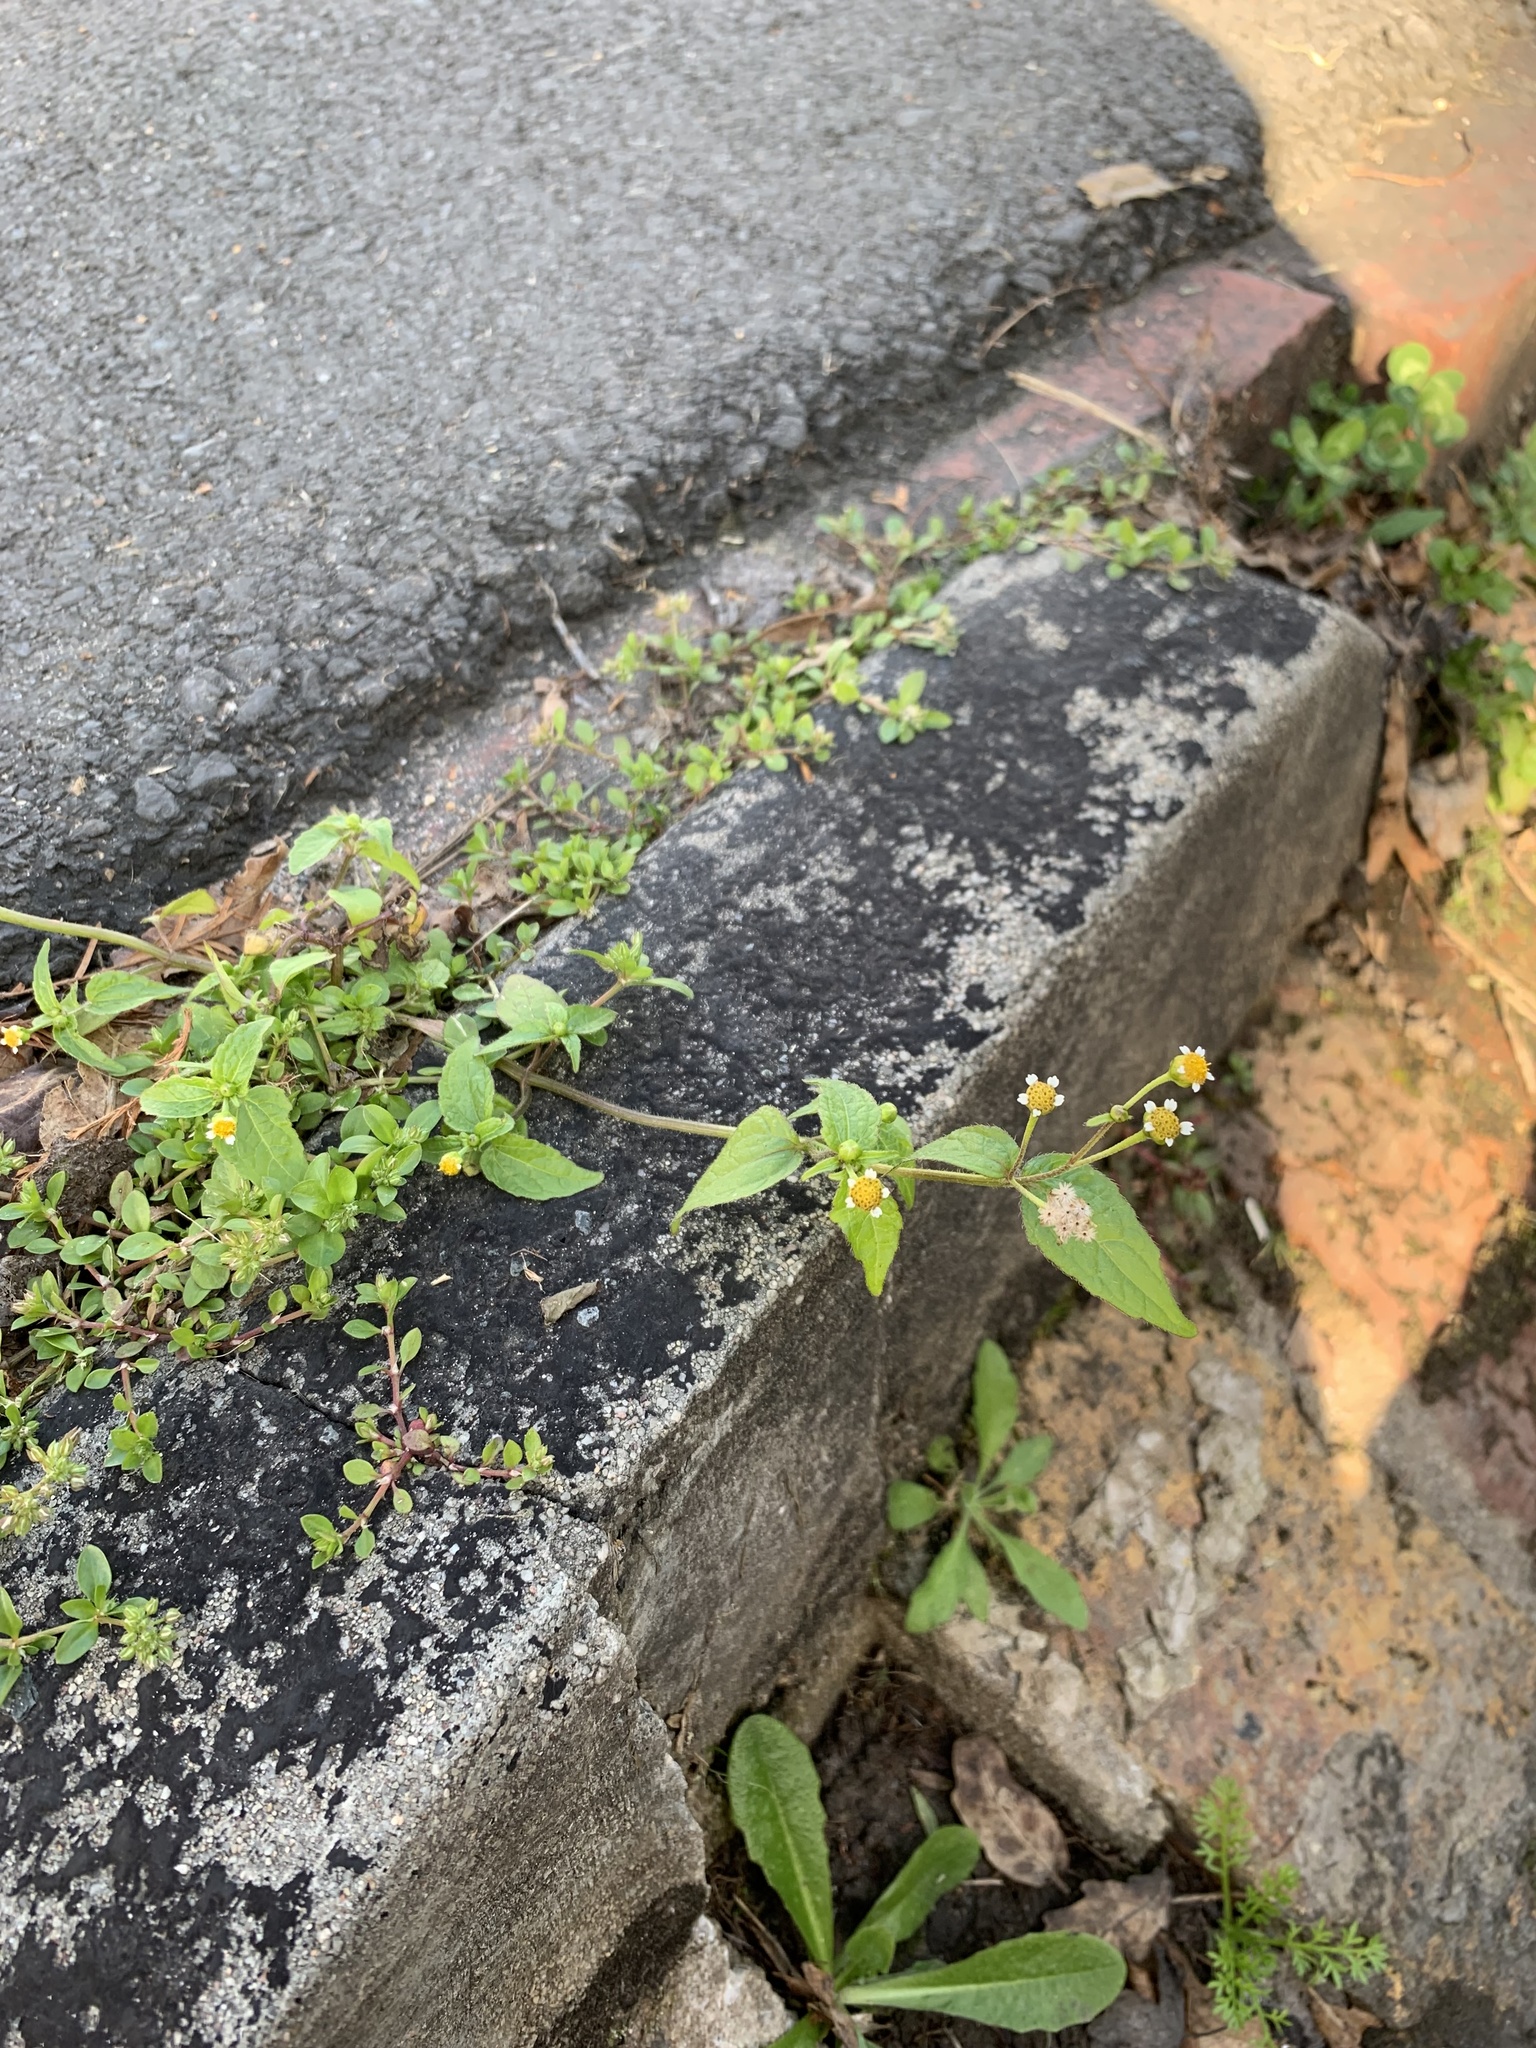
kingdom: Plantae
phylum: Tracheophyta
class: Magnoliopsida
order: Asterales
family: Asteraceae
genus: Galinsoga
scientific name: Galinsoga parviflora
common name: Gallant soldier
